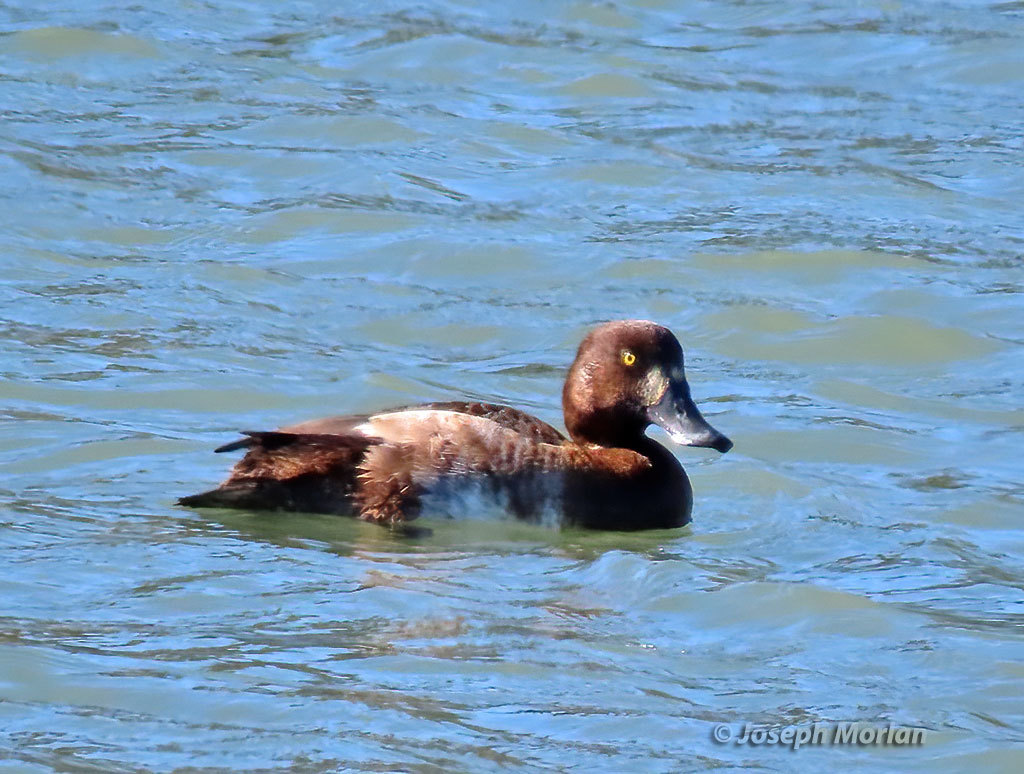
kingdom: Animalia
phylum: Chordata
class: Aves
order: Anseriformes
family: Anatidae
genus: Aythya
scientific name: Aythya marila
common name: Greater scaup
